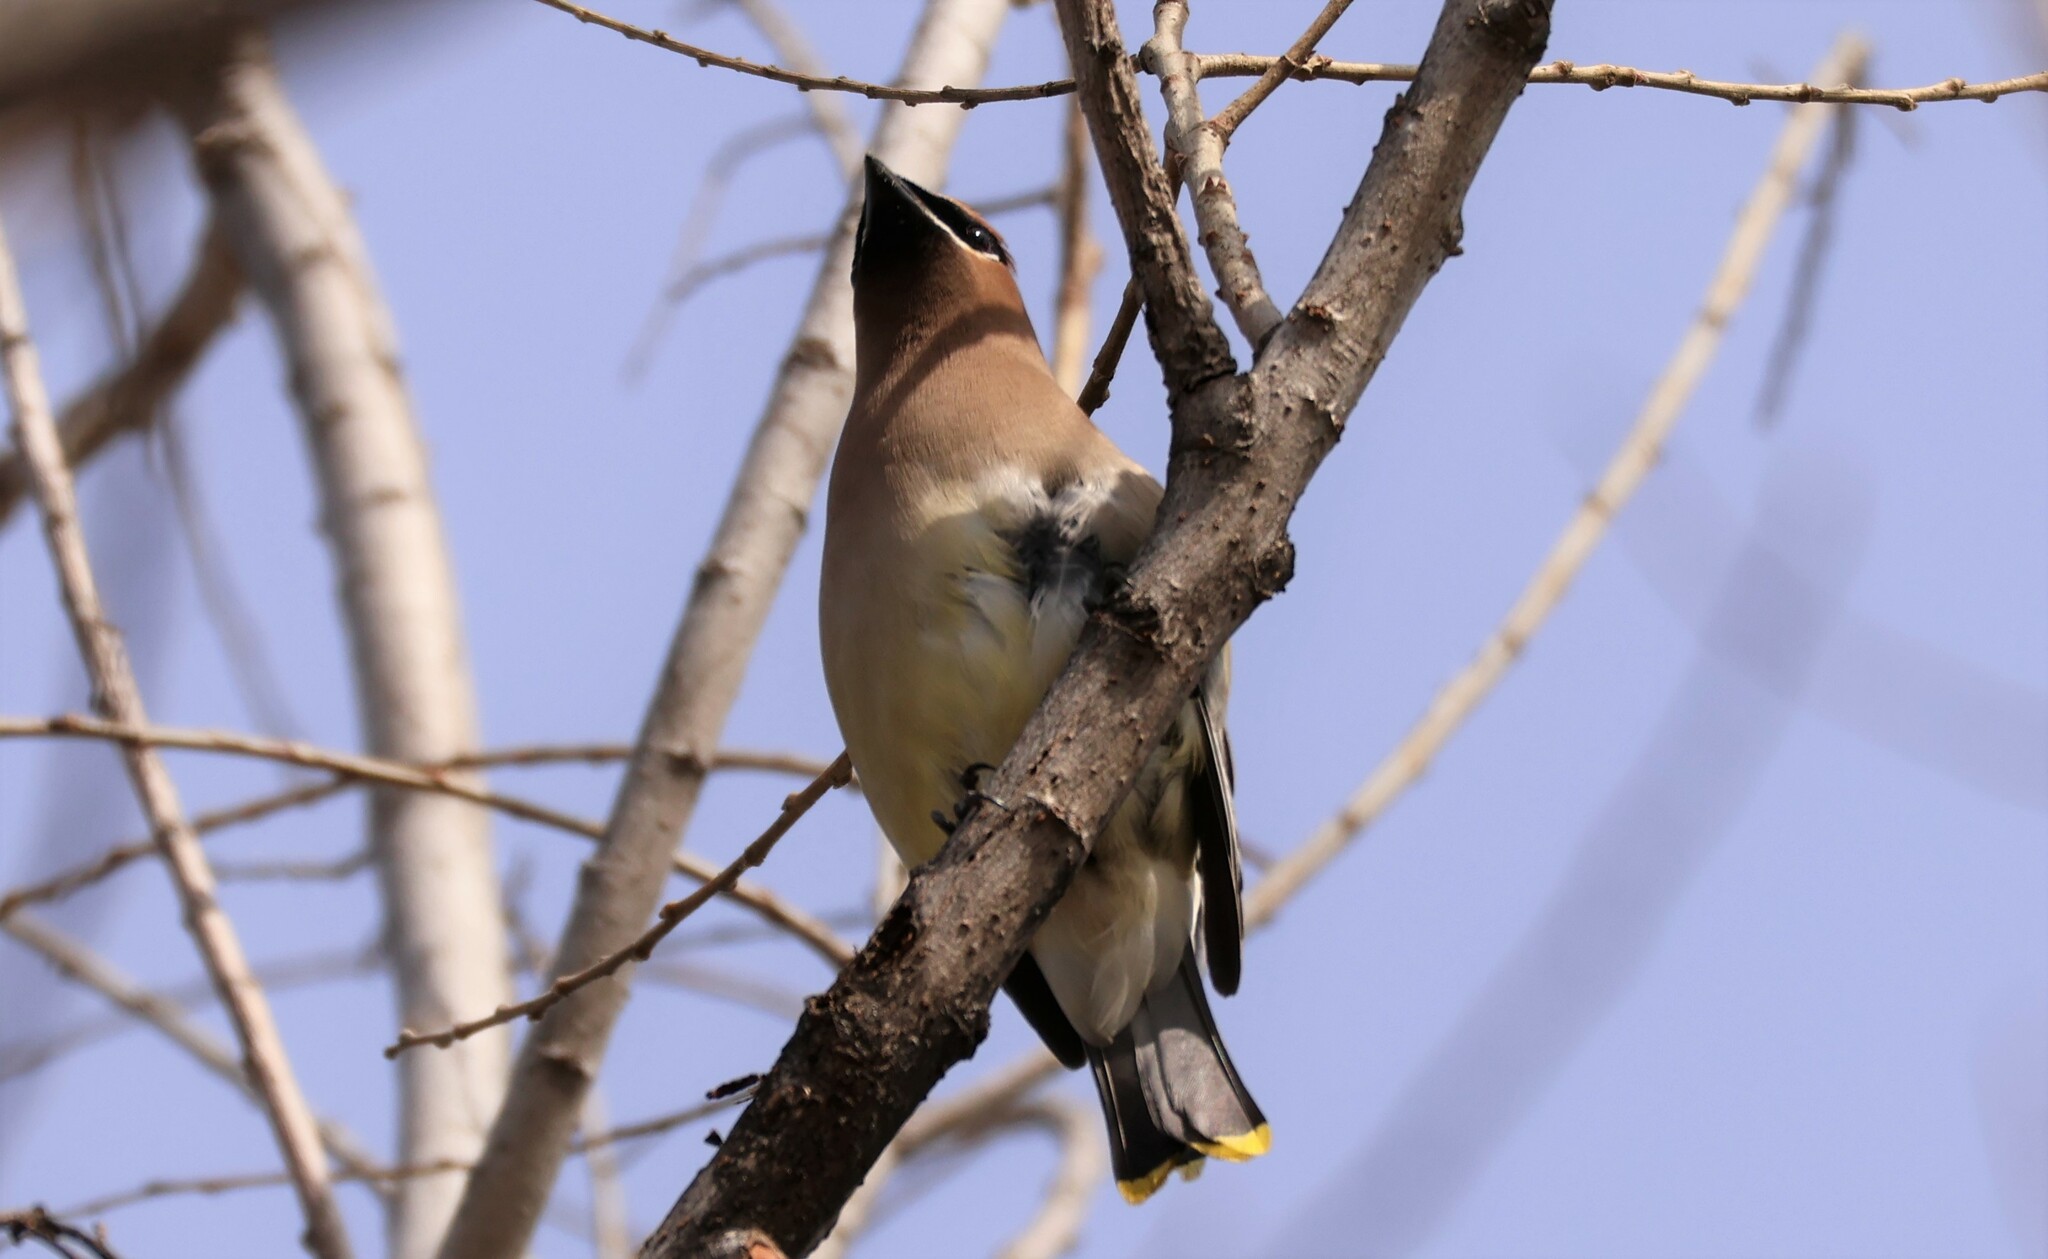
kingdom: Animalia
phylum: Chordata
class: Aves
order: Passeriformes
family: Bombycillidae
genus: Bombycilla
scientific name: Bombycilla cedrorum
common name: Cedar waxwing
